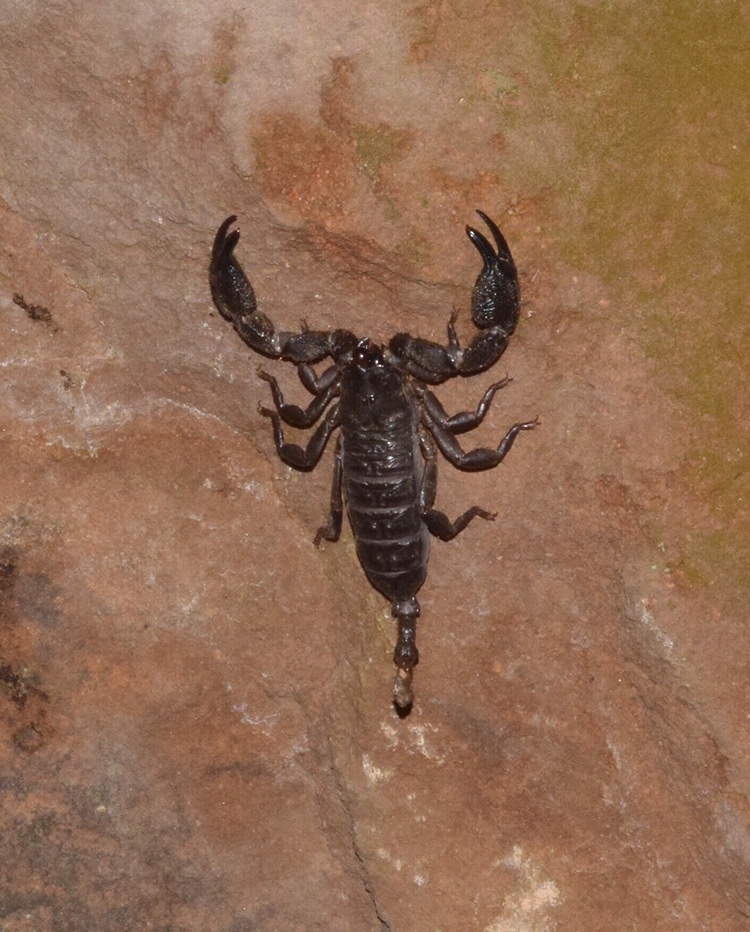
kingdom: Animalia
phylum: Arthropoda
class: Arachnida
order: Scorpiones
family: Hormuridae
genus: Opisthacanthus
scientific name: Opisthacanthus validus
